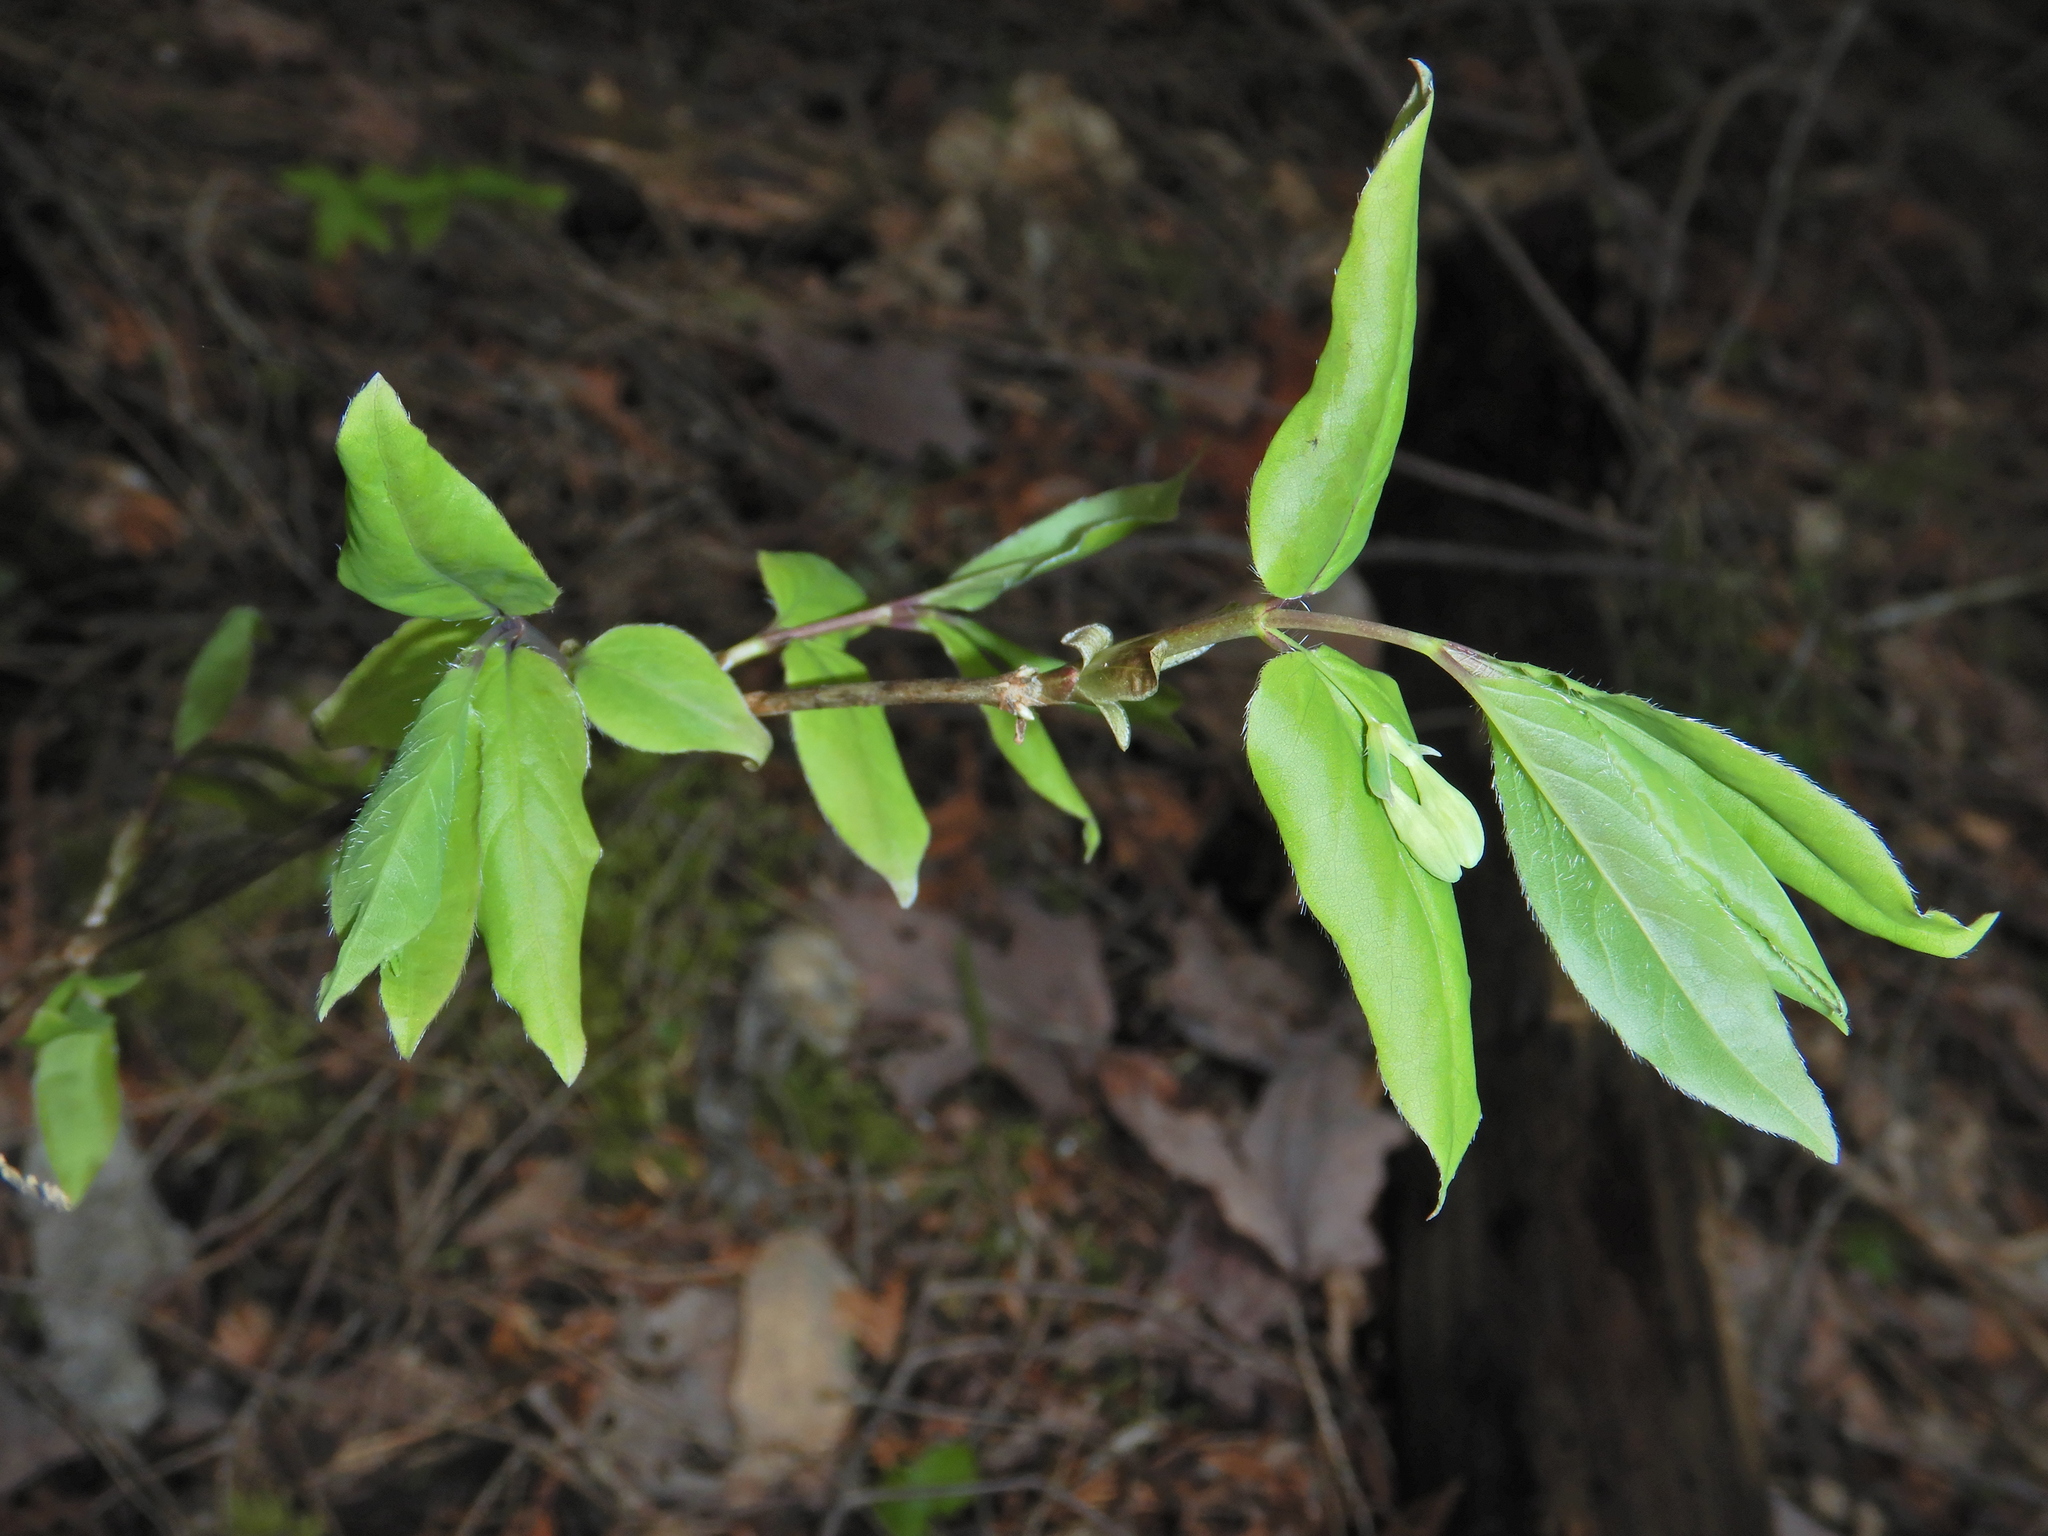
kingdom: Plantae
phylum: Tracheophyta
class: Magnoliopsida
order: Dipsacales
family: Caprifoliaceae
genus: Lonicera
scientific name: Lonicera canadensis
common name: American fly-honeysuckle
